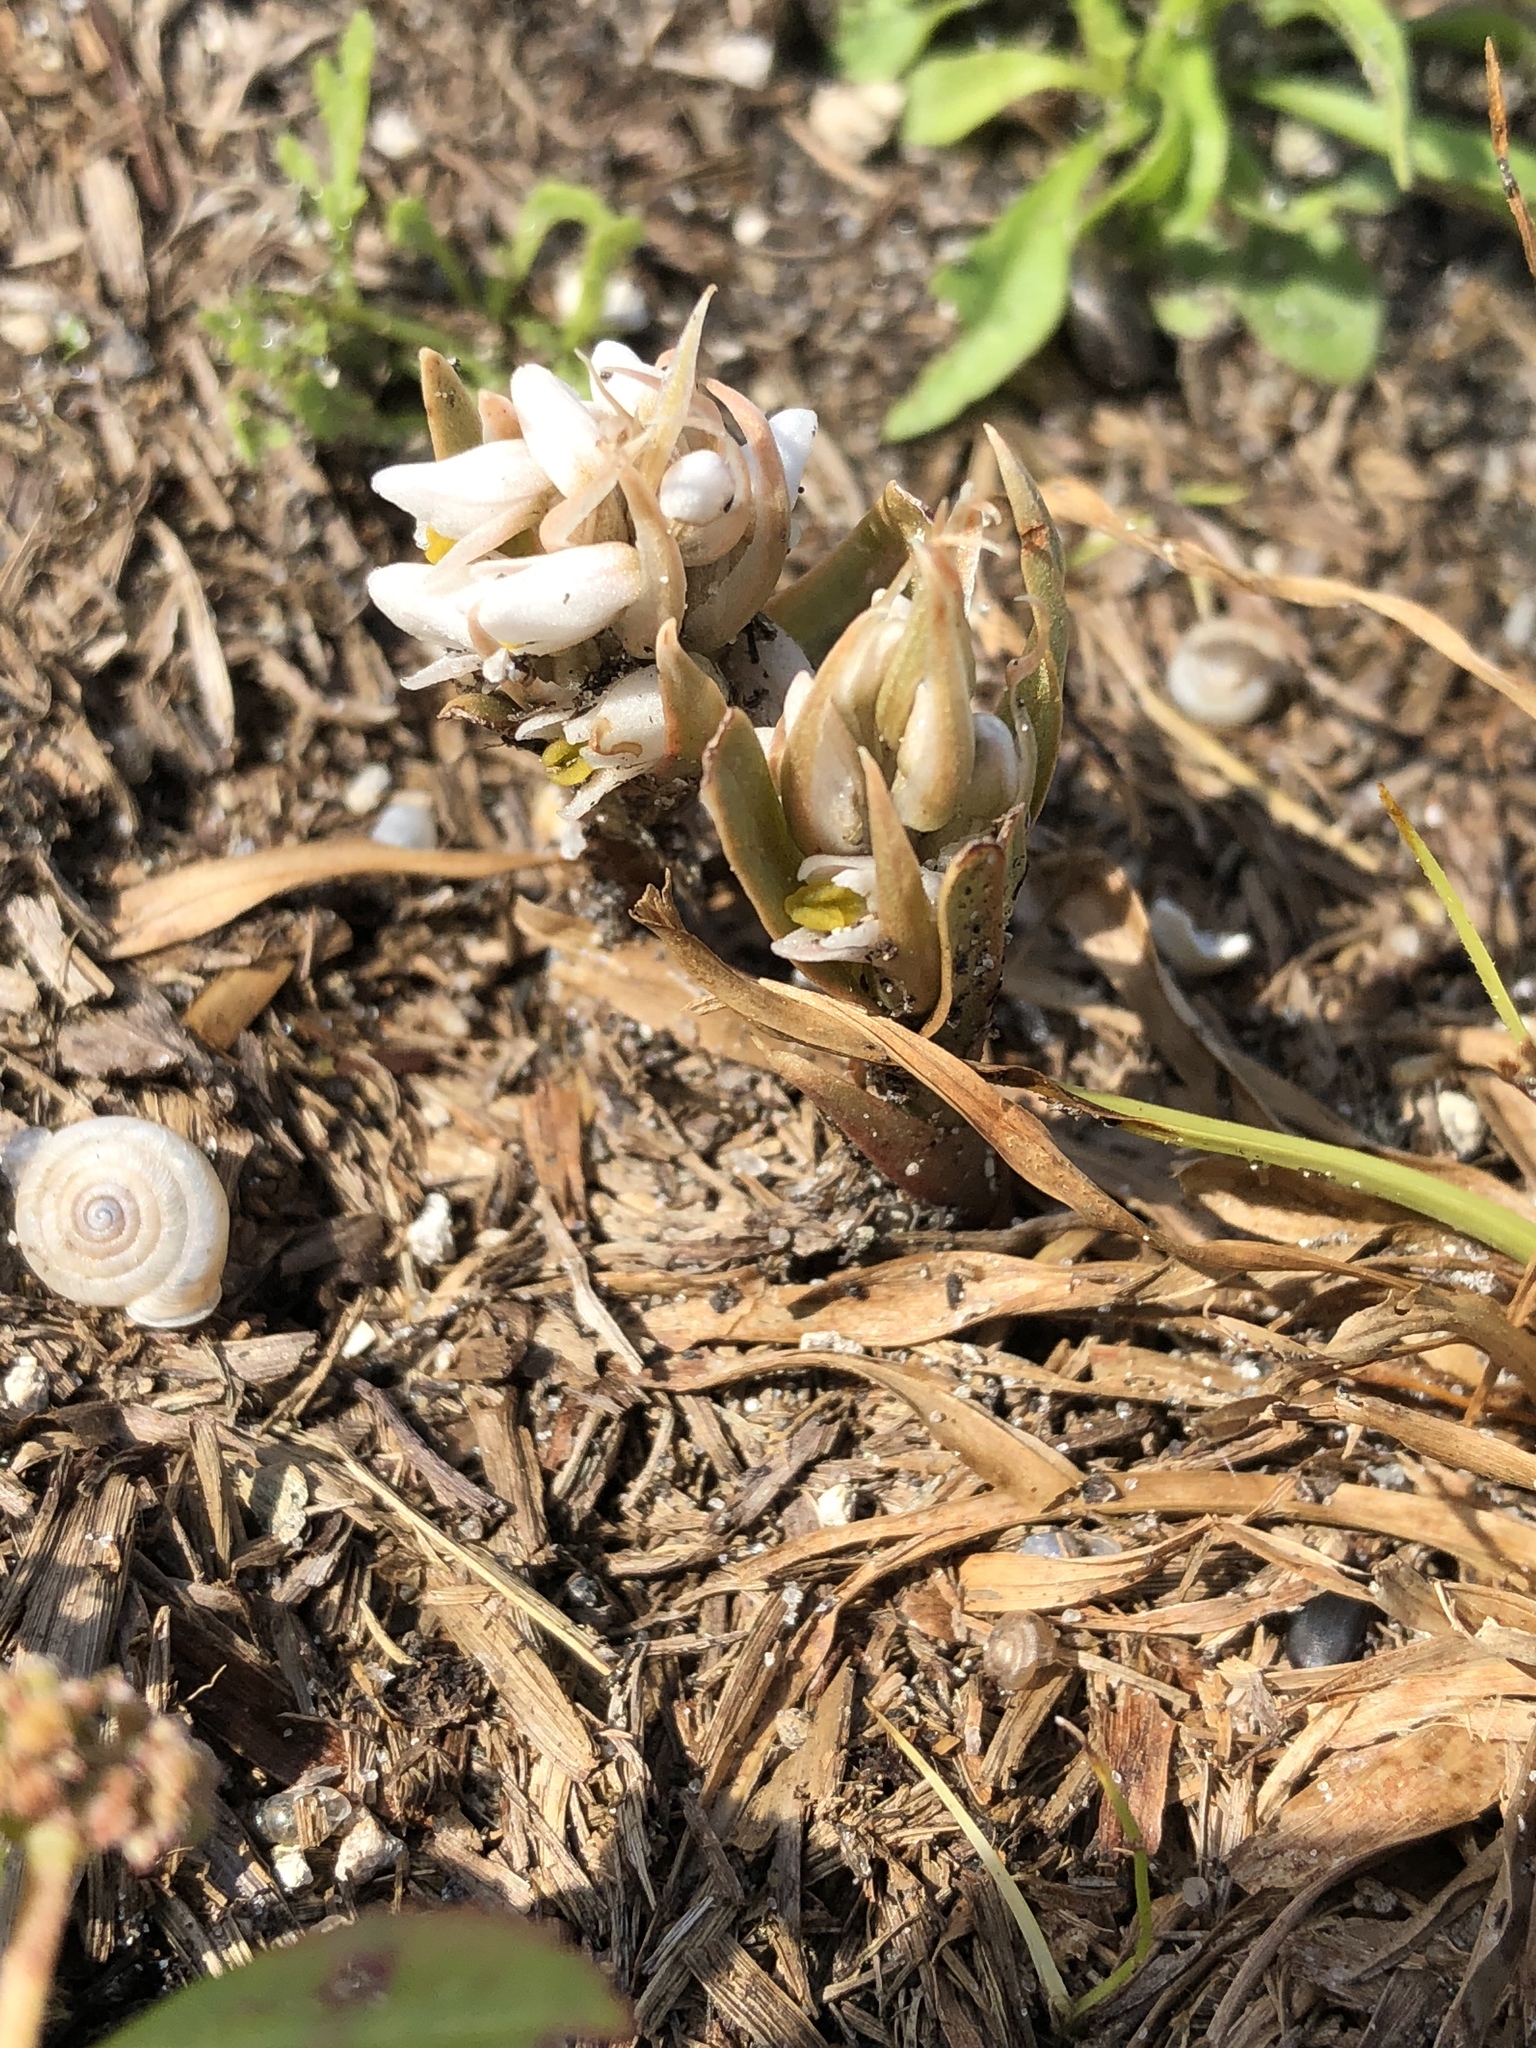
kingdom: Plantae
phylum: Tracheophyta
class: Liliopsida
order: Asparagales
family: Orchidaceae
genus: Zeuxine
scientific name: Zeuxine strateumatica
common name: Soldier's orchid
